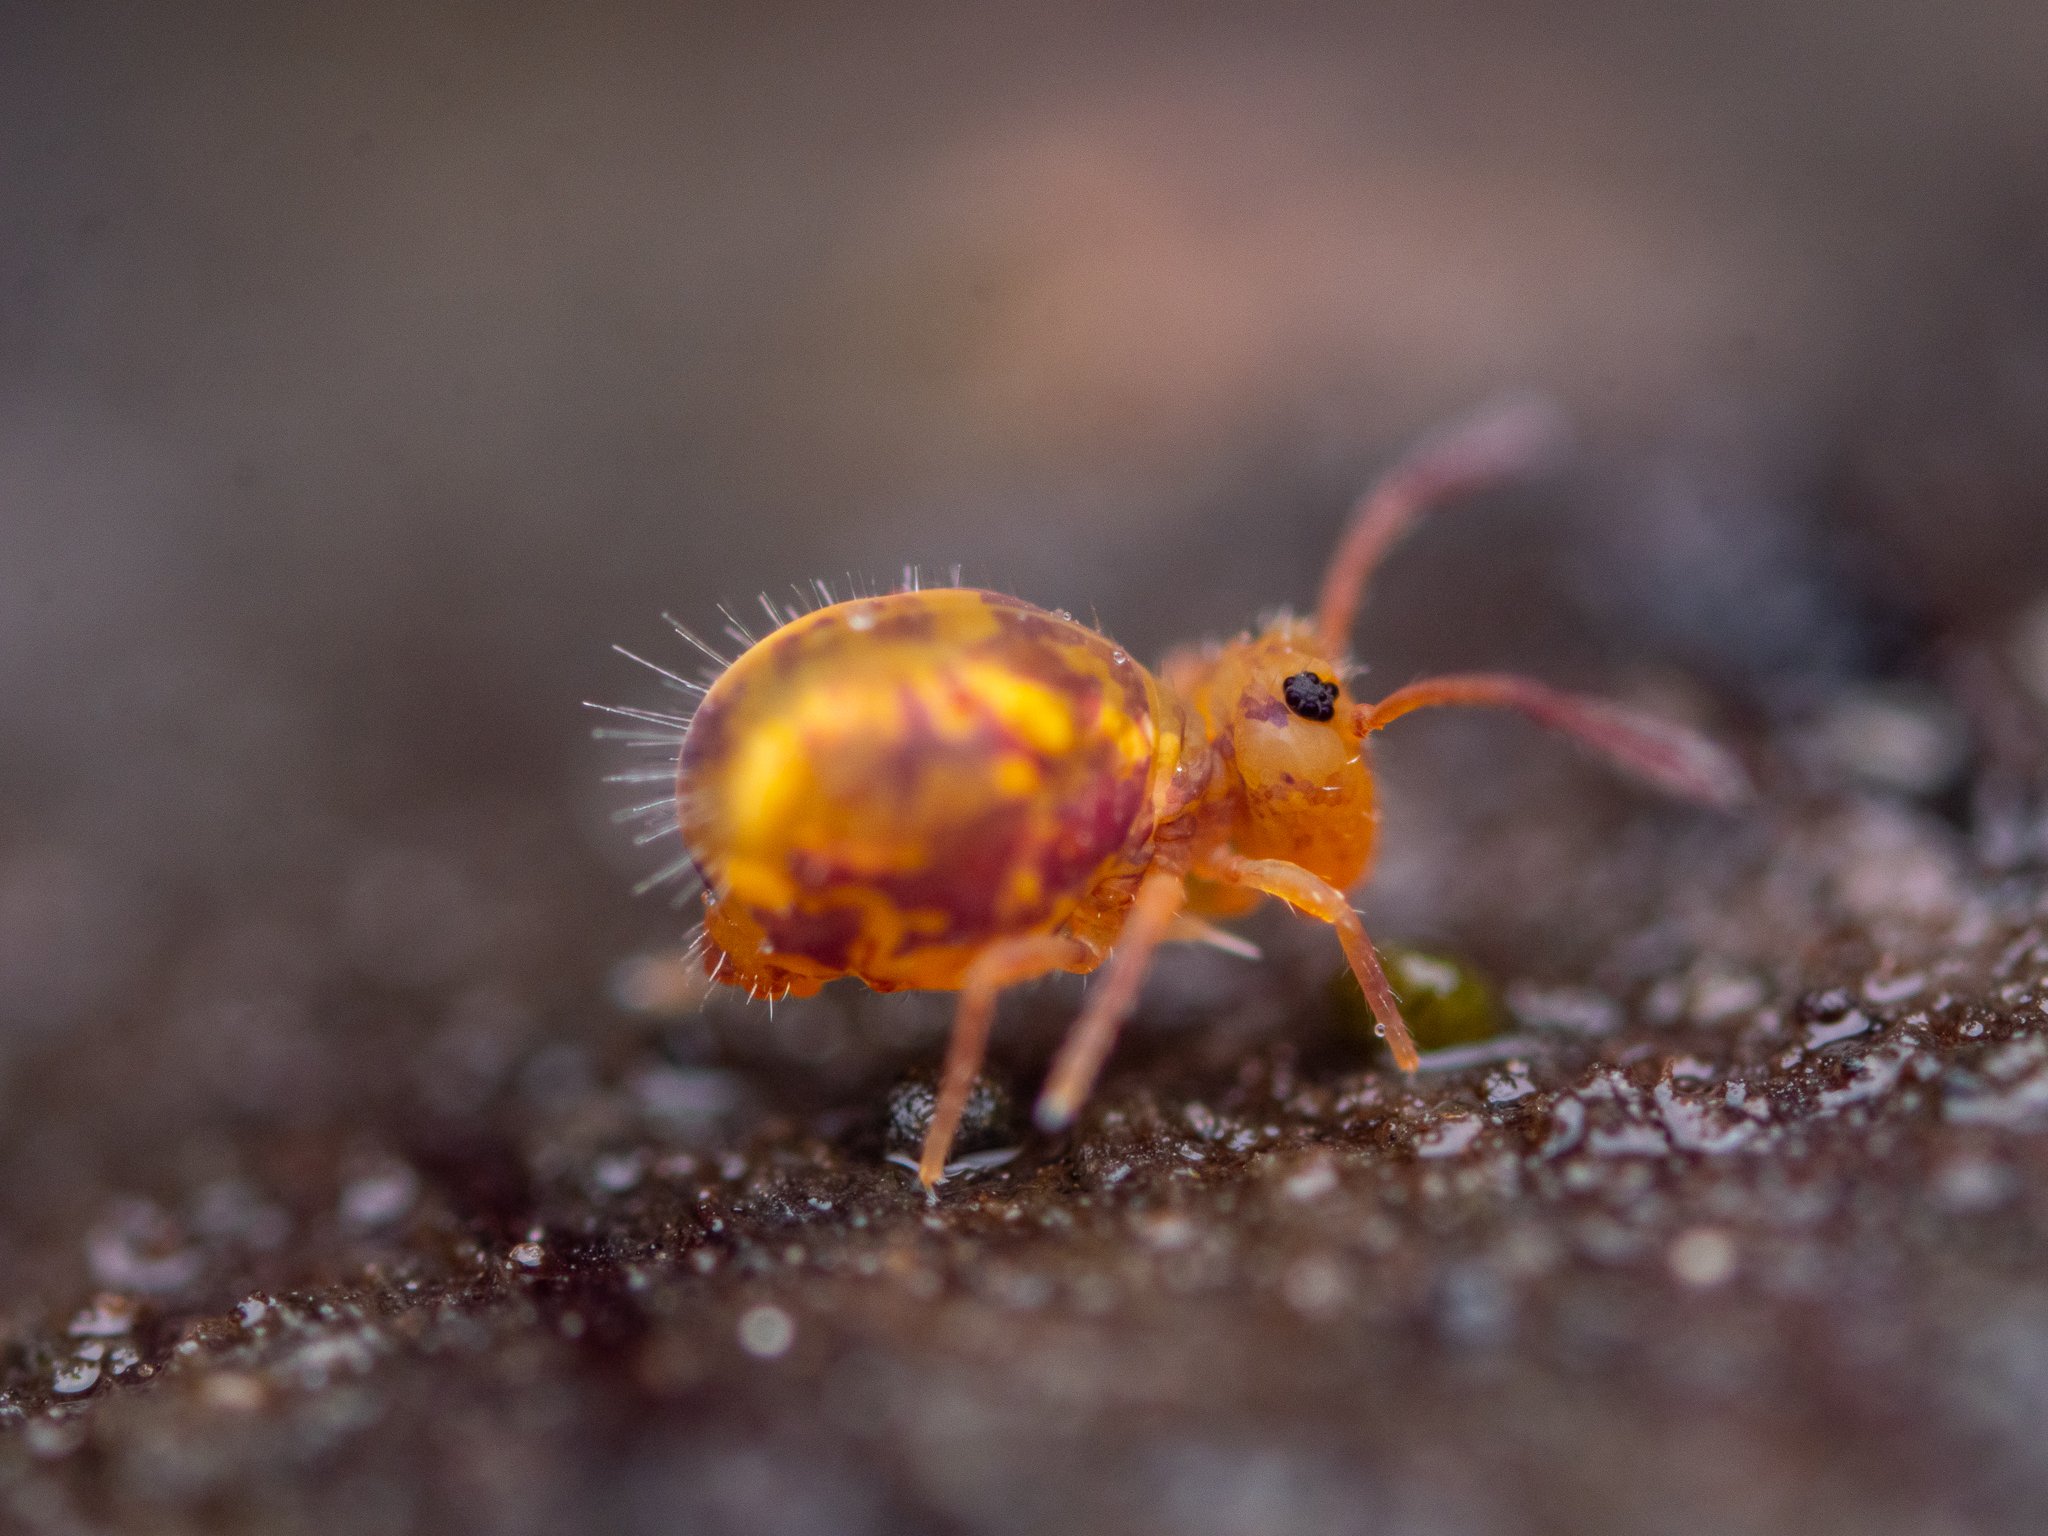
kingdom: Animalia
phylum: Arthropoda
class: Collembola
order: Symphypleona
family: Dicyrtomidae
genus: Dicyrtomina
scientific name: Dicyrtomina ornata
